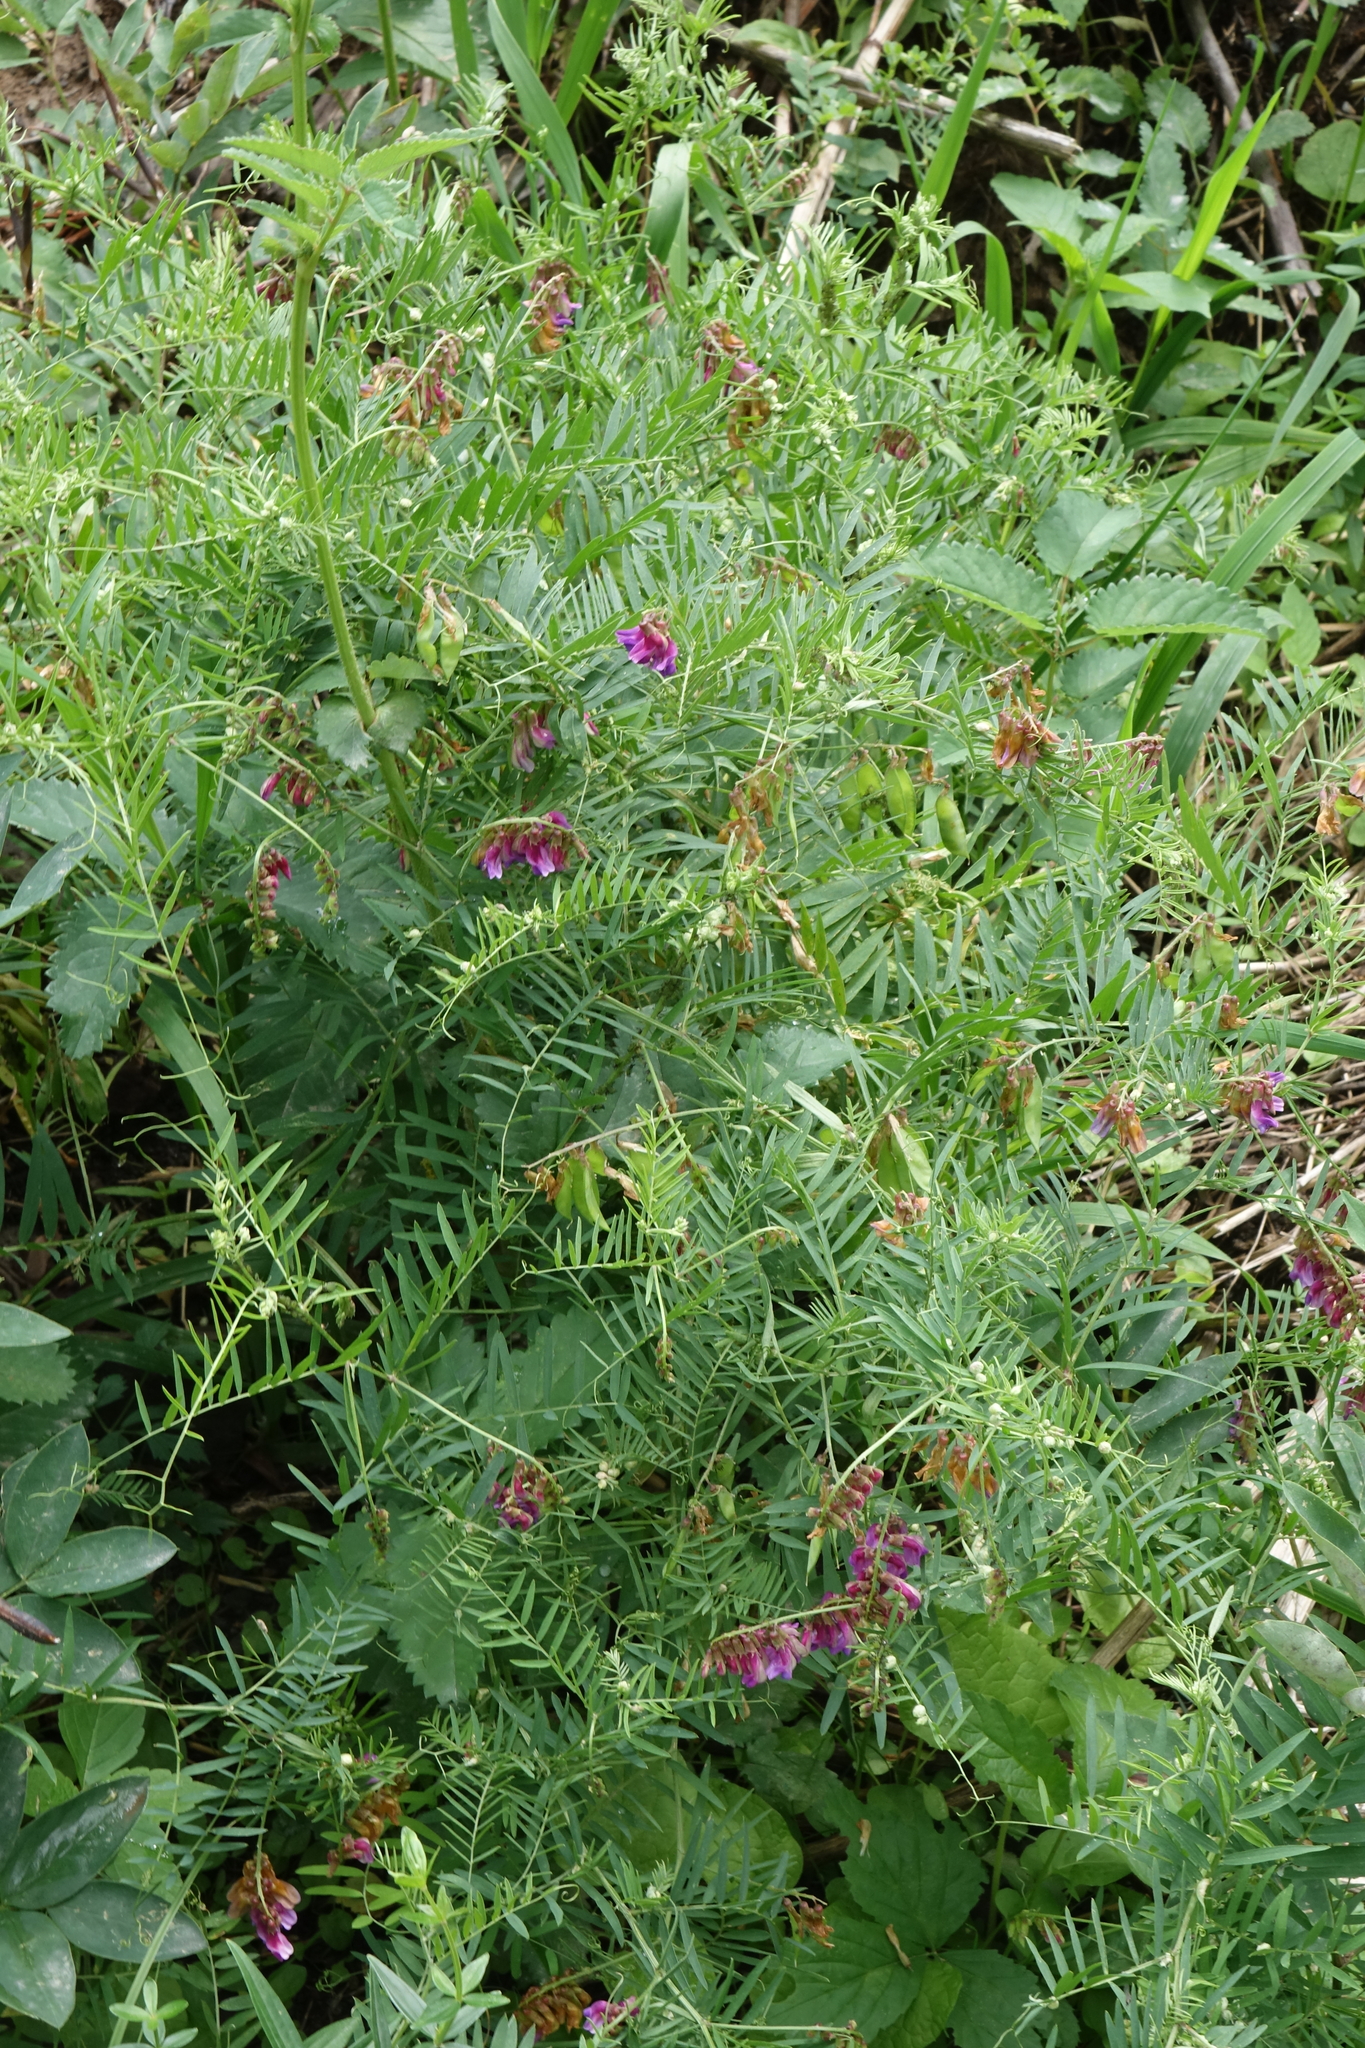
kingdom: Plantae
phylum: Tracheophyta
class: Magnoliopsida
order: Fabales
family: Fabaceae
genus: Vicia
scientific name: Vicia megalotropis
